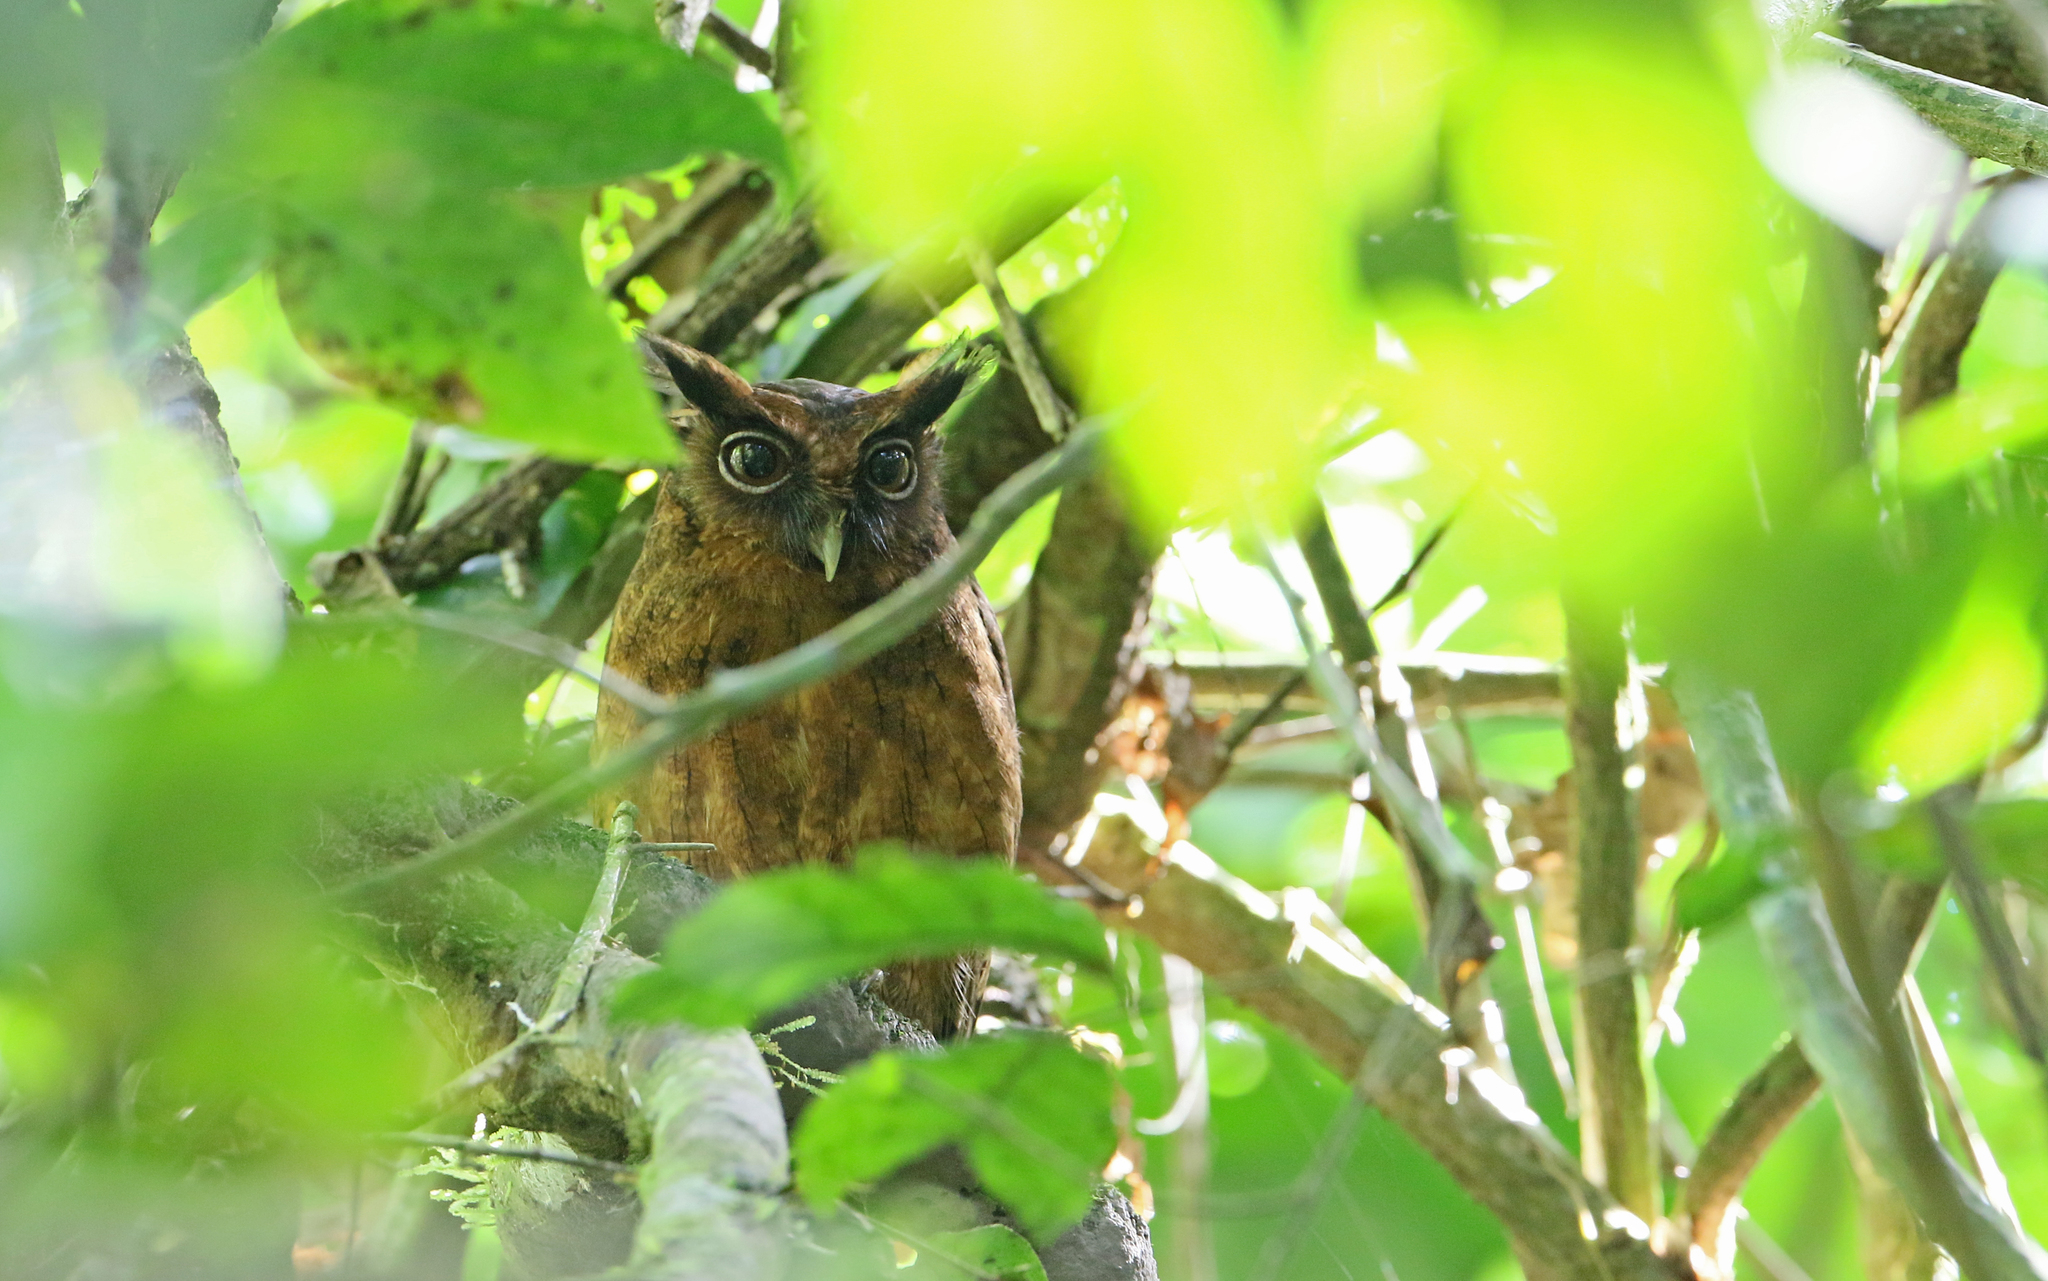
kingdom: Animalia
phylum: Chordata
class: Aves
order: Strigiformes
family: Strigidae
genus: Megascops
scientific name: Megascops watsonii
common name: Tawny-bellied screech-owl
